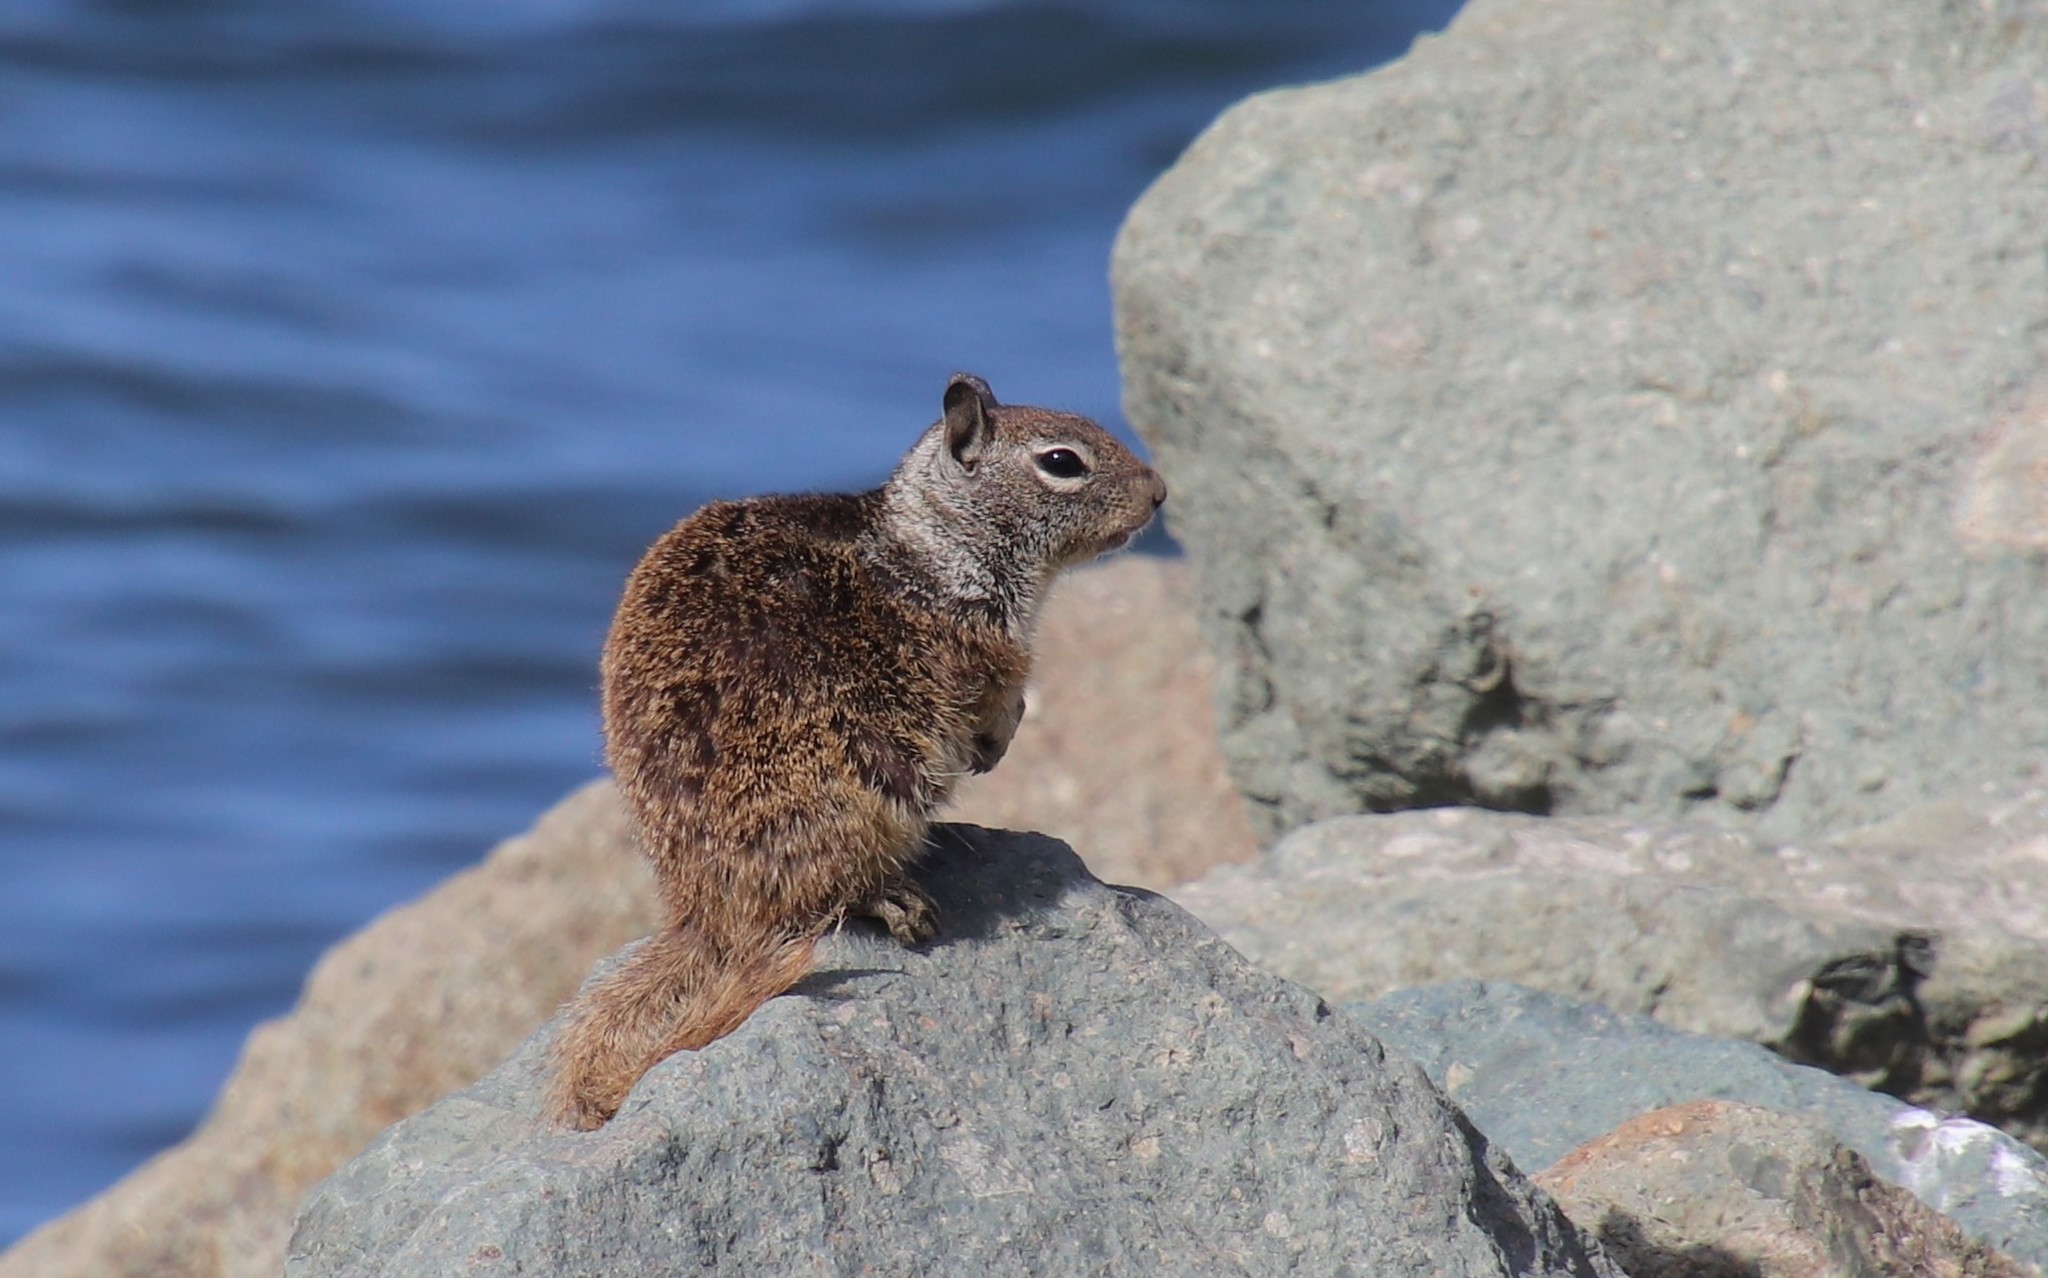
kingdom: Animalia
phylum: Chordata
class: Mammalia
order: Rodentia
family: Sciuridae
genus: Otospermophilus
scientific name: Otospermophilus beecheyi
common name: California ground squirrel
